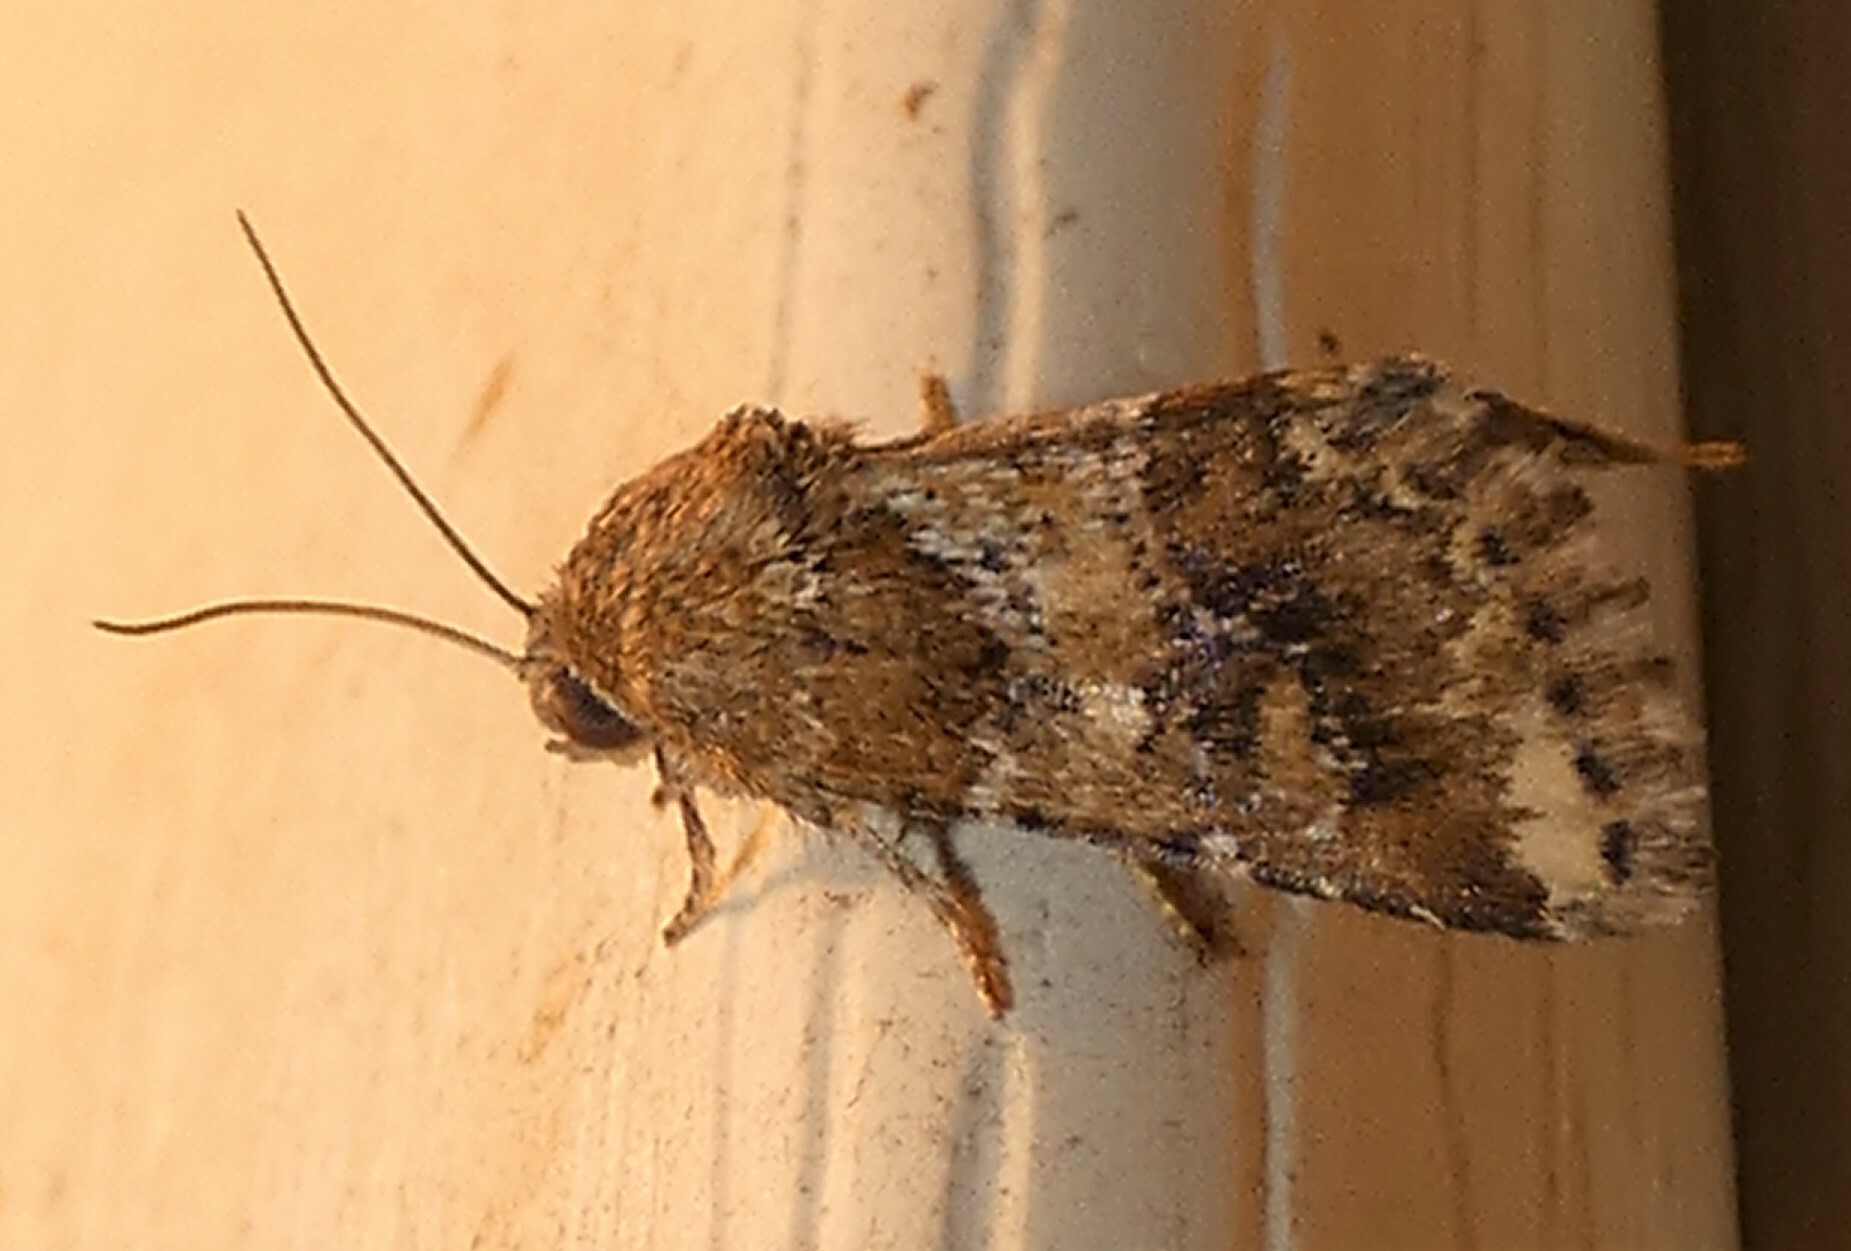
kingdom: Animalia
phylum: Arthropoda
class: Insecta
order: Lepidoptera
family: Noctuidae
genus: Schinia
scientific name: Schinia sordida
